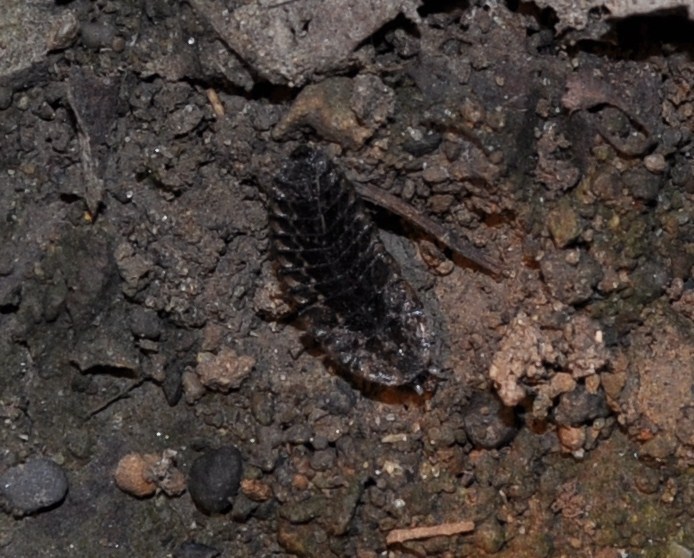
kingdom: Animalia
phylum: Arthropoda
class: Insecta
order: Coleoptera
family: Lampyridae
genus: Photuris
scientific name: Photuris
